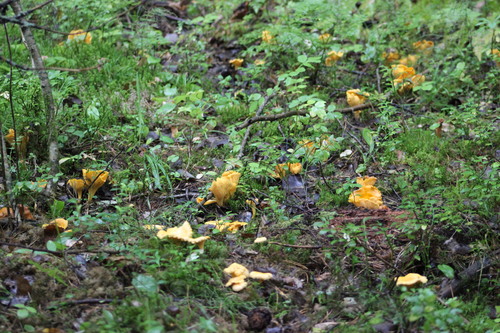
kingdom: Fungi
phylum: Basidiomycota
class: Agaricomycetes
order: Cantharellales
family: Hydnaceae
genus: Cantharellus
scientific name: Cantharellus cibarius
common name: Chanterelle
